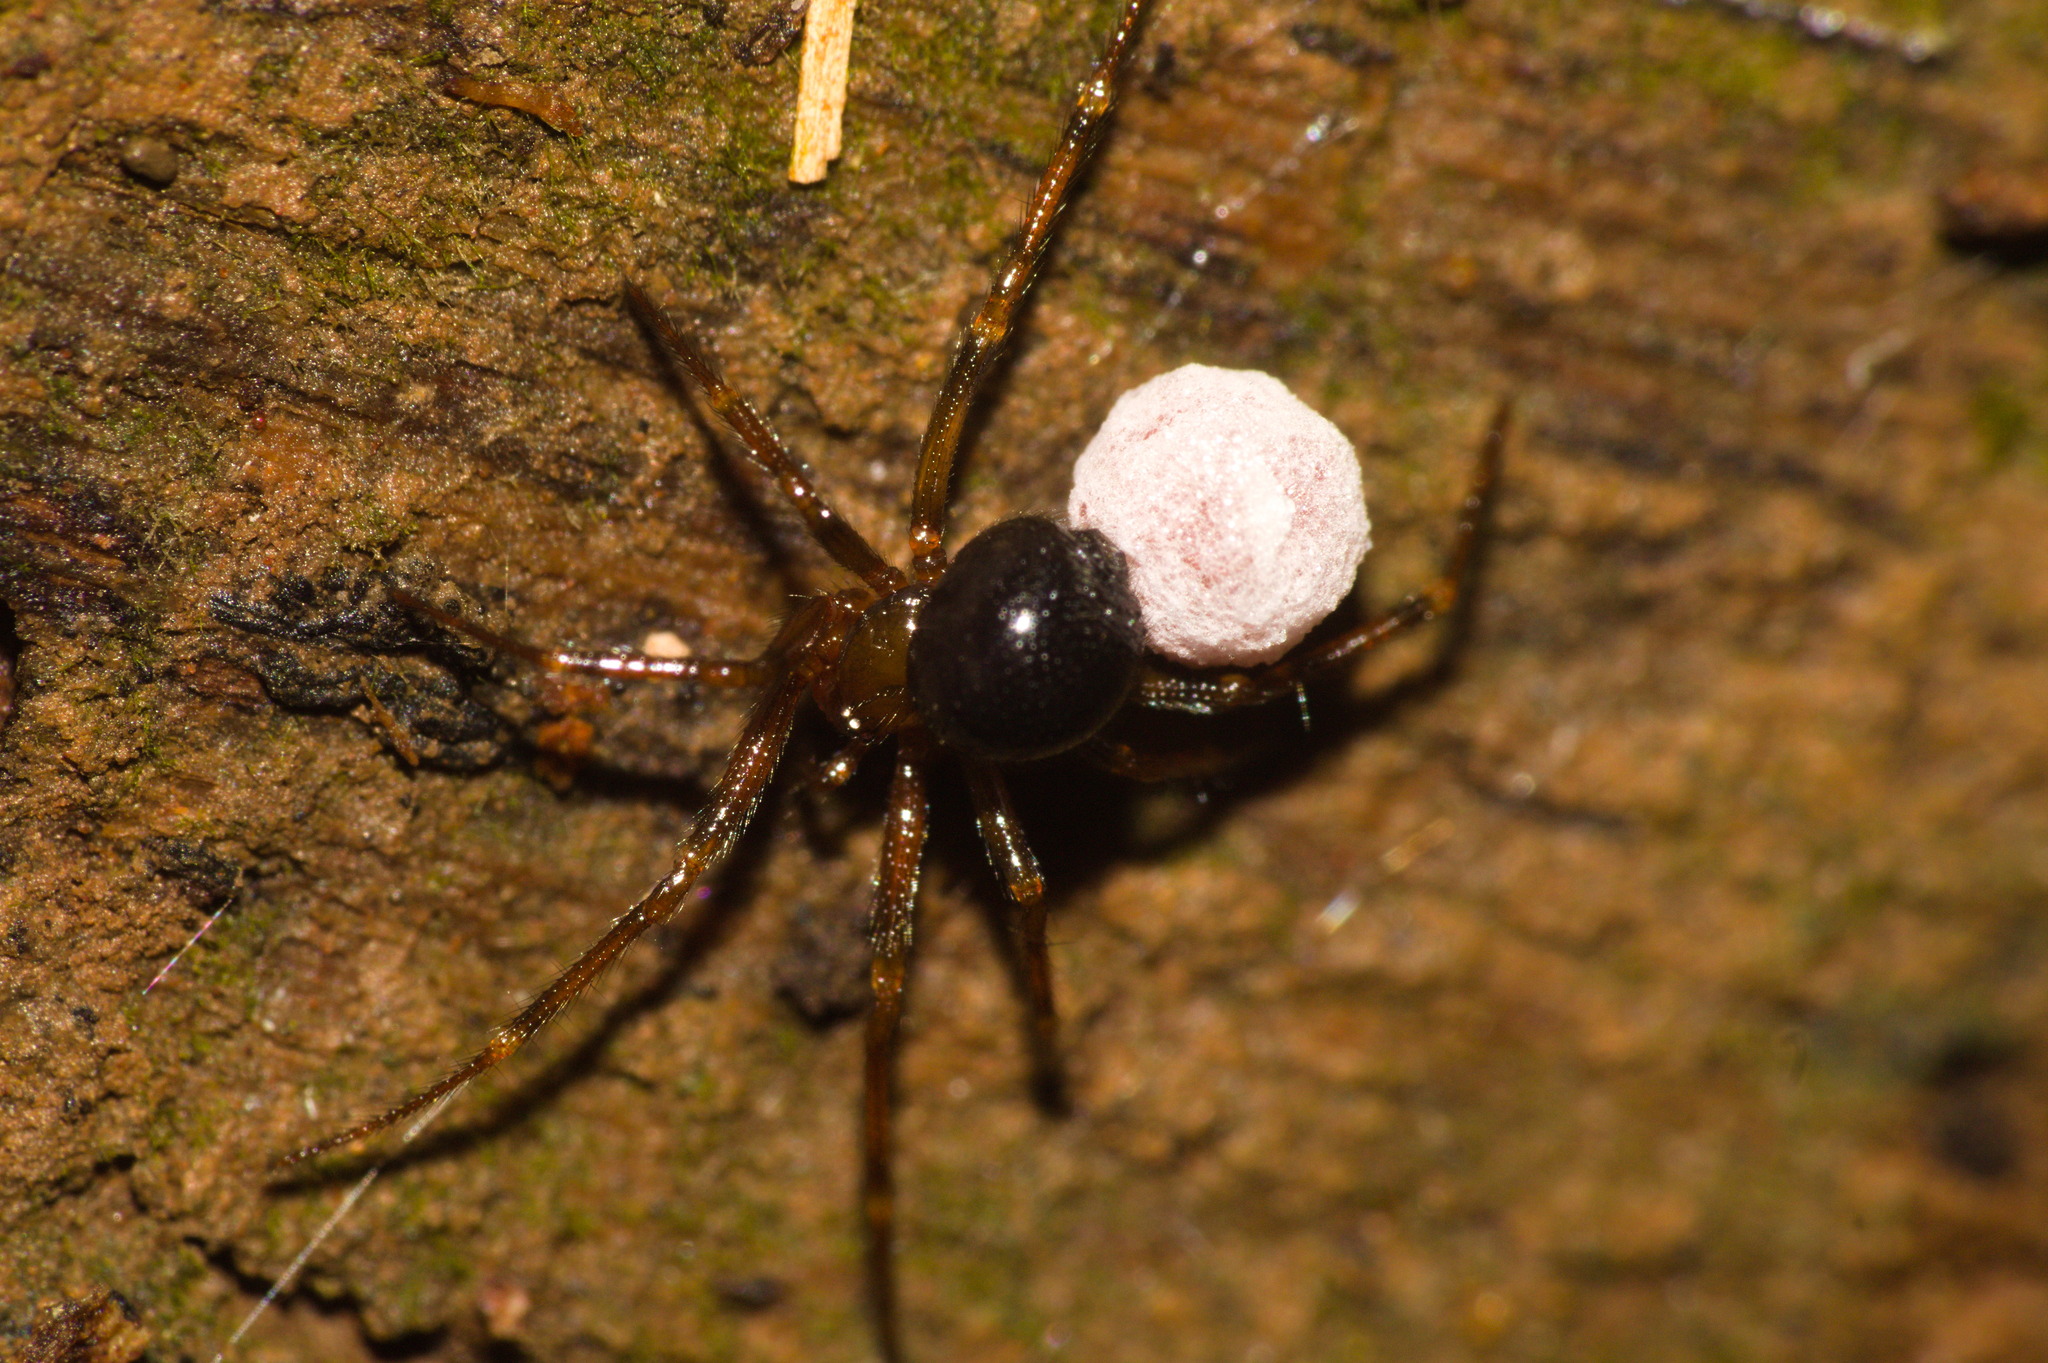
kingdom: Animalia
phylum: Arthropoda
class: Arachnida
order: Araneae
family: Theridiidae
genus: Nesticodes
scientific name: Nesticodes rufipes
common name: Cobweb spiders
